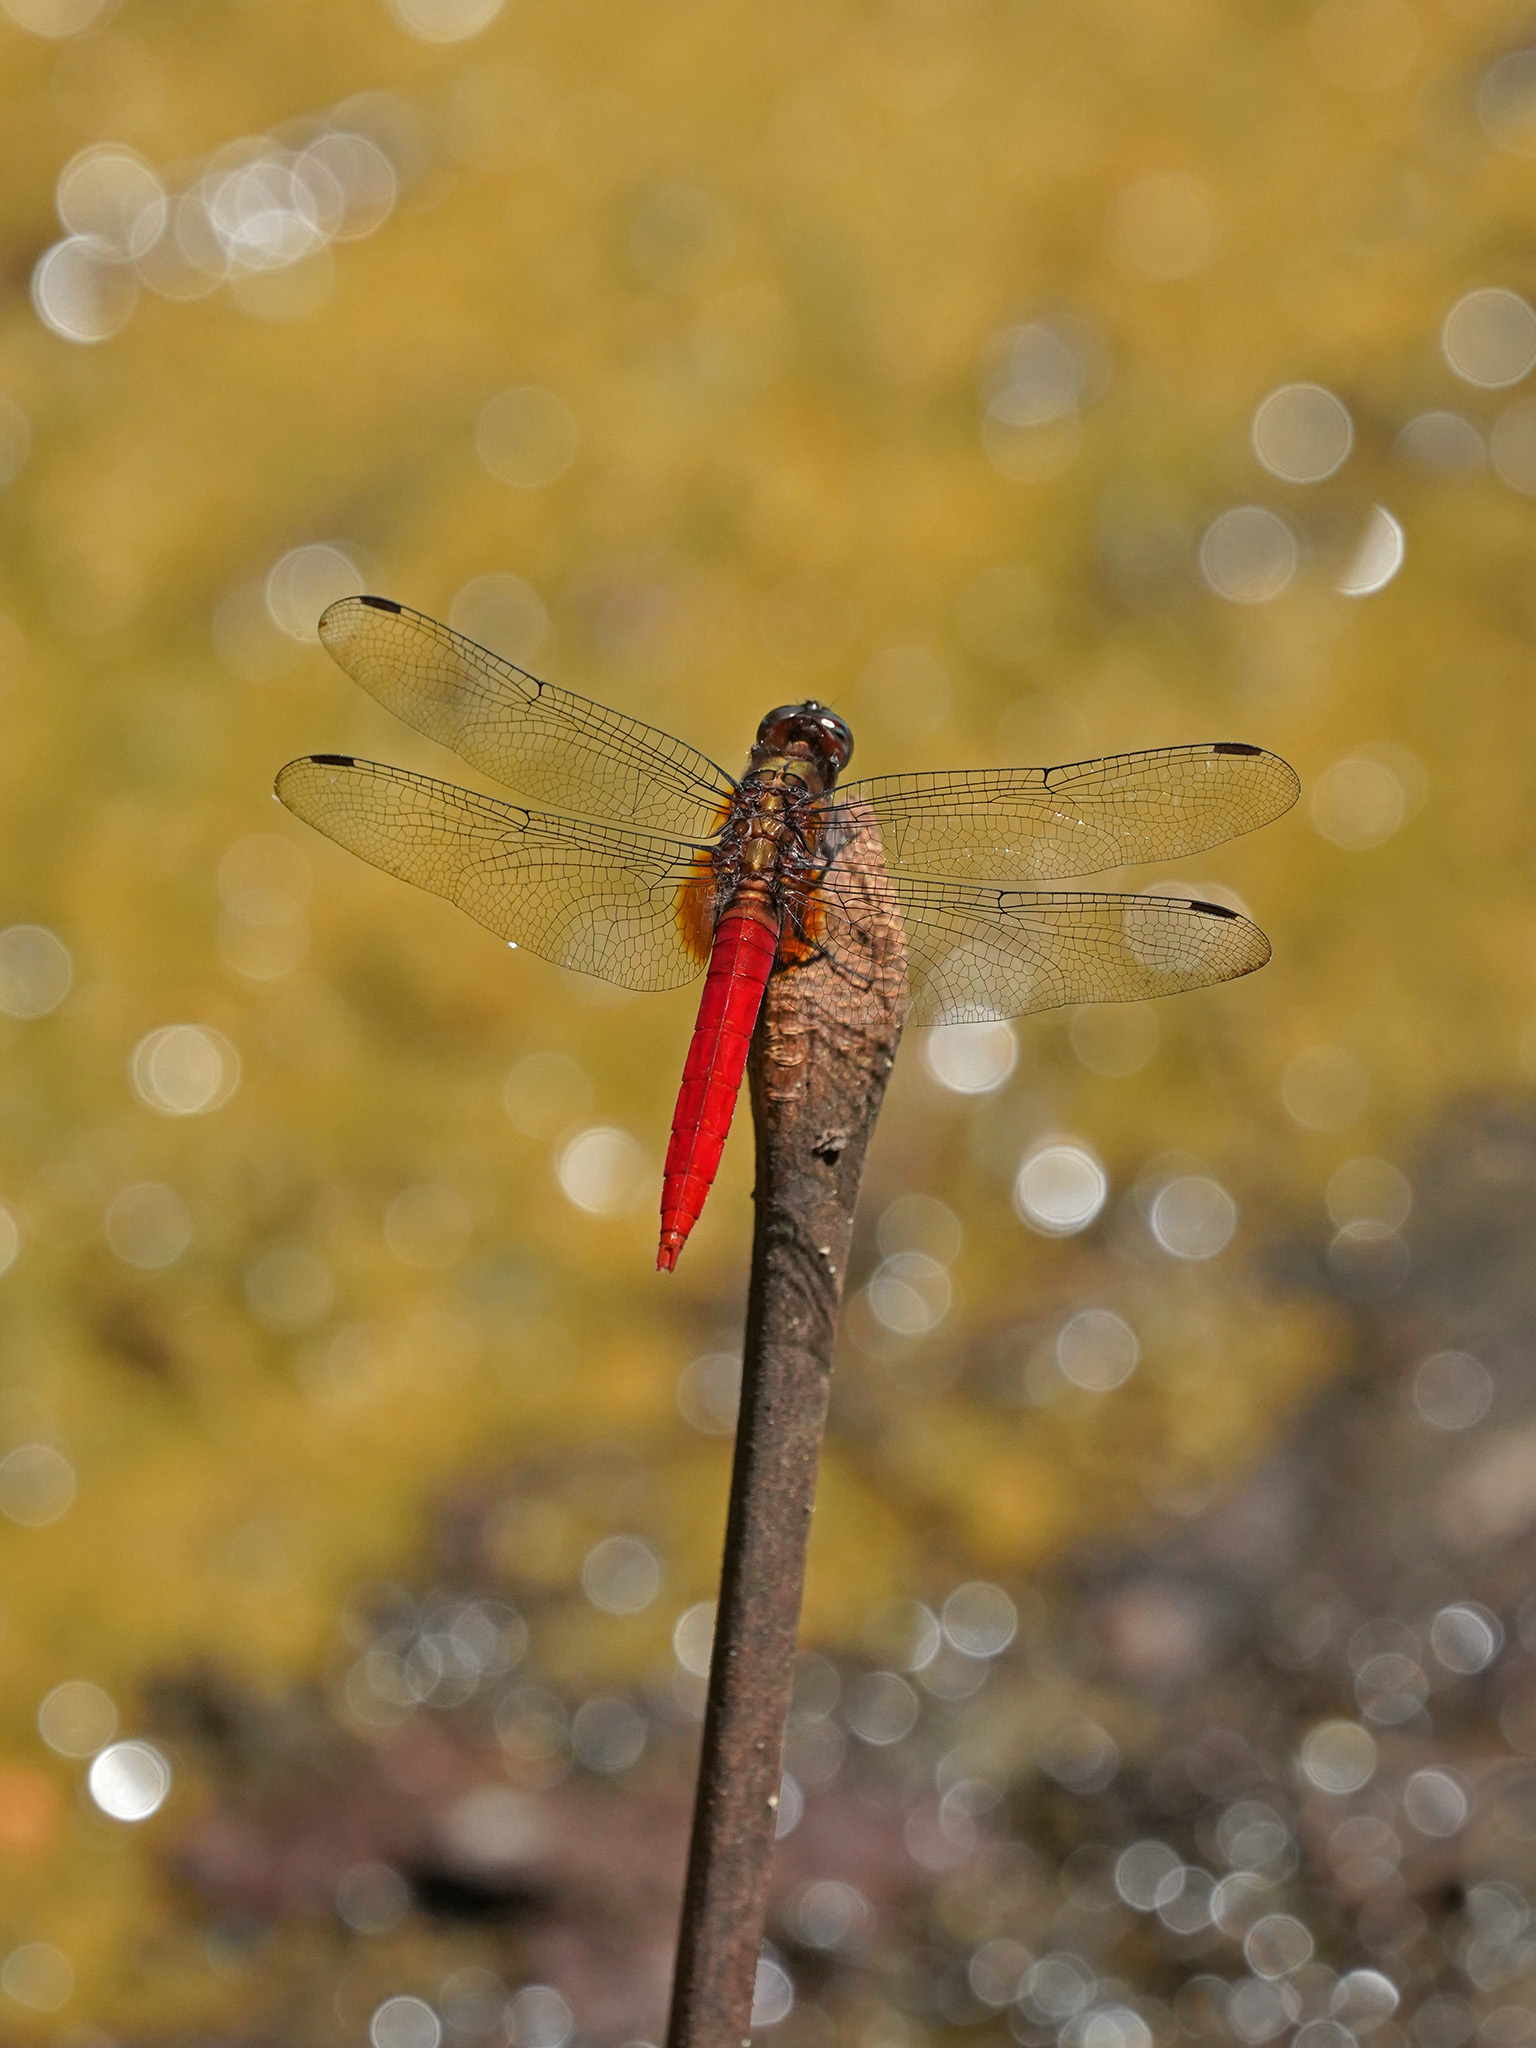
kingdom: Animalia
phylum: Arthropoda
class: Insecta
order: Odonata
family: Libellulidae
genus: Orthetrum
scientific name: Orthetrum chrysis
